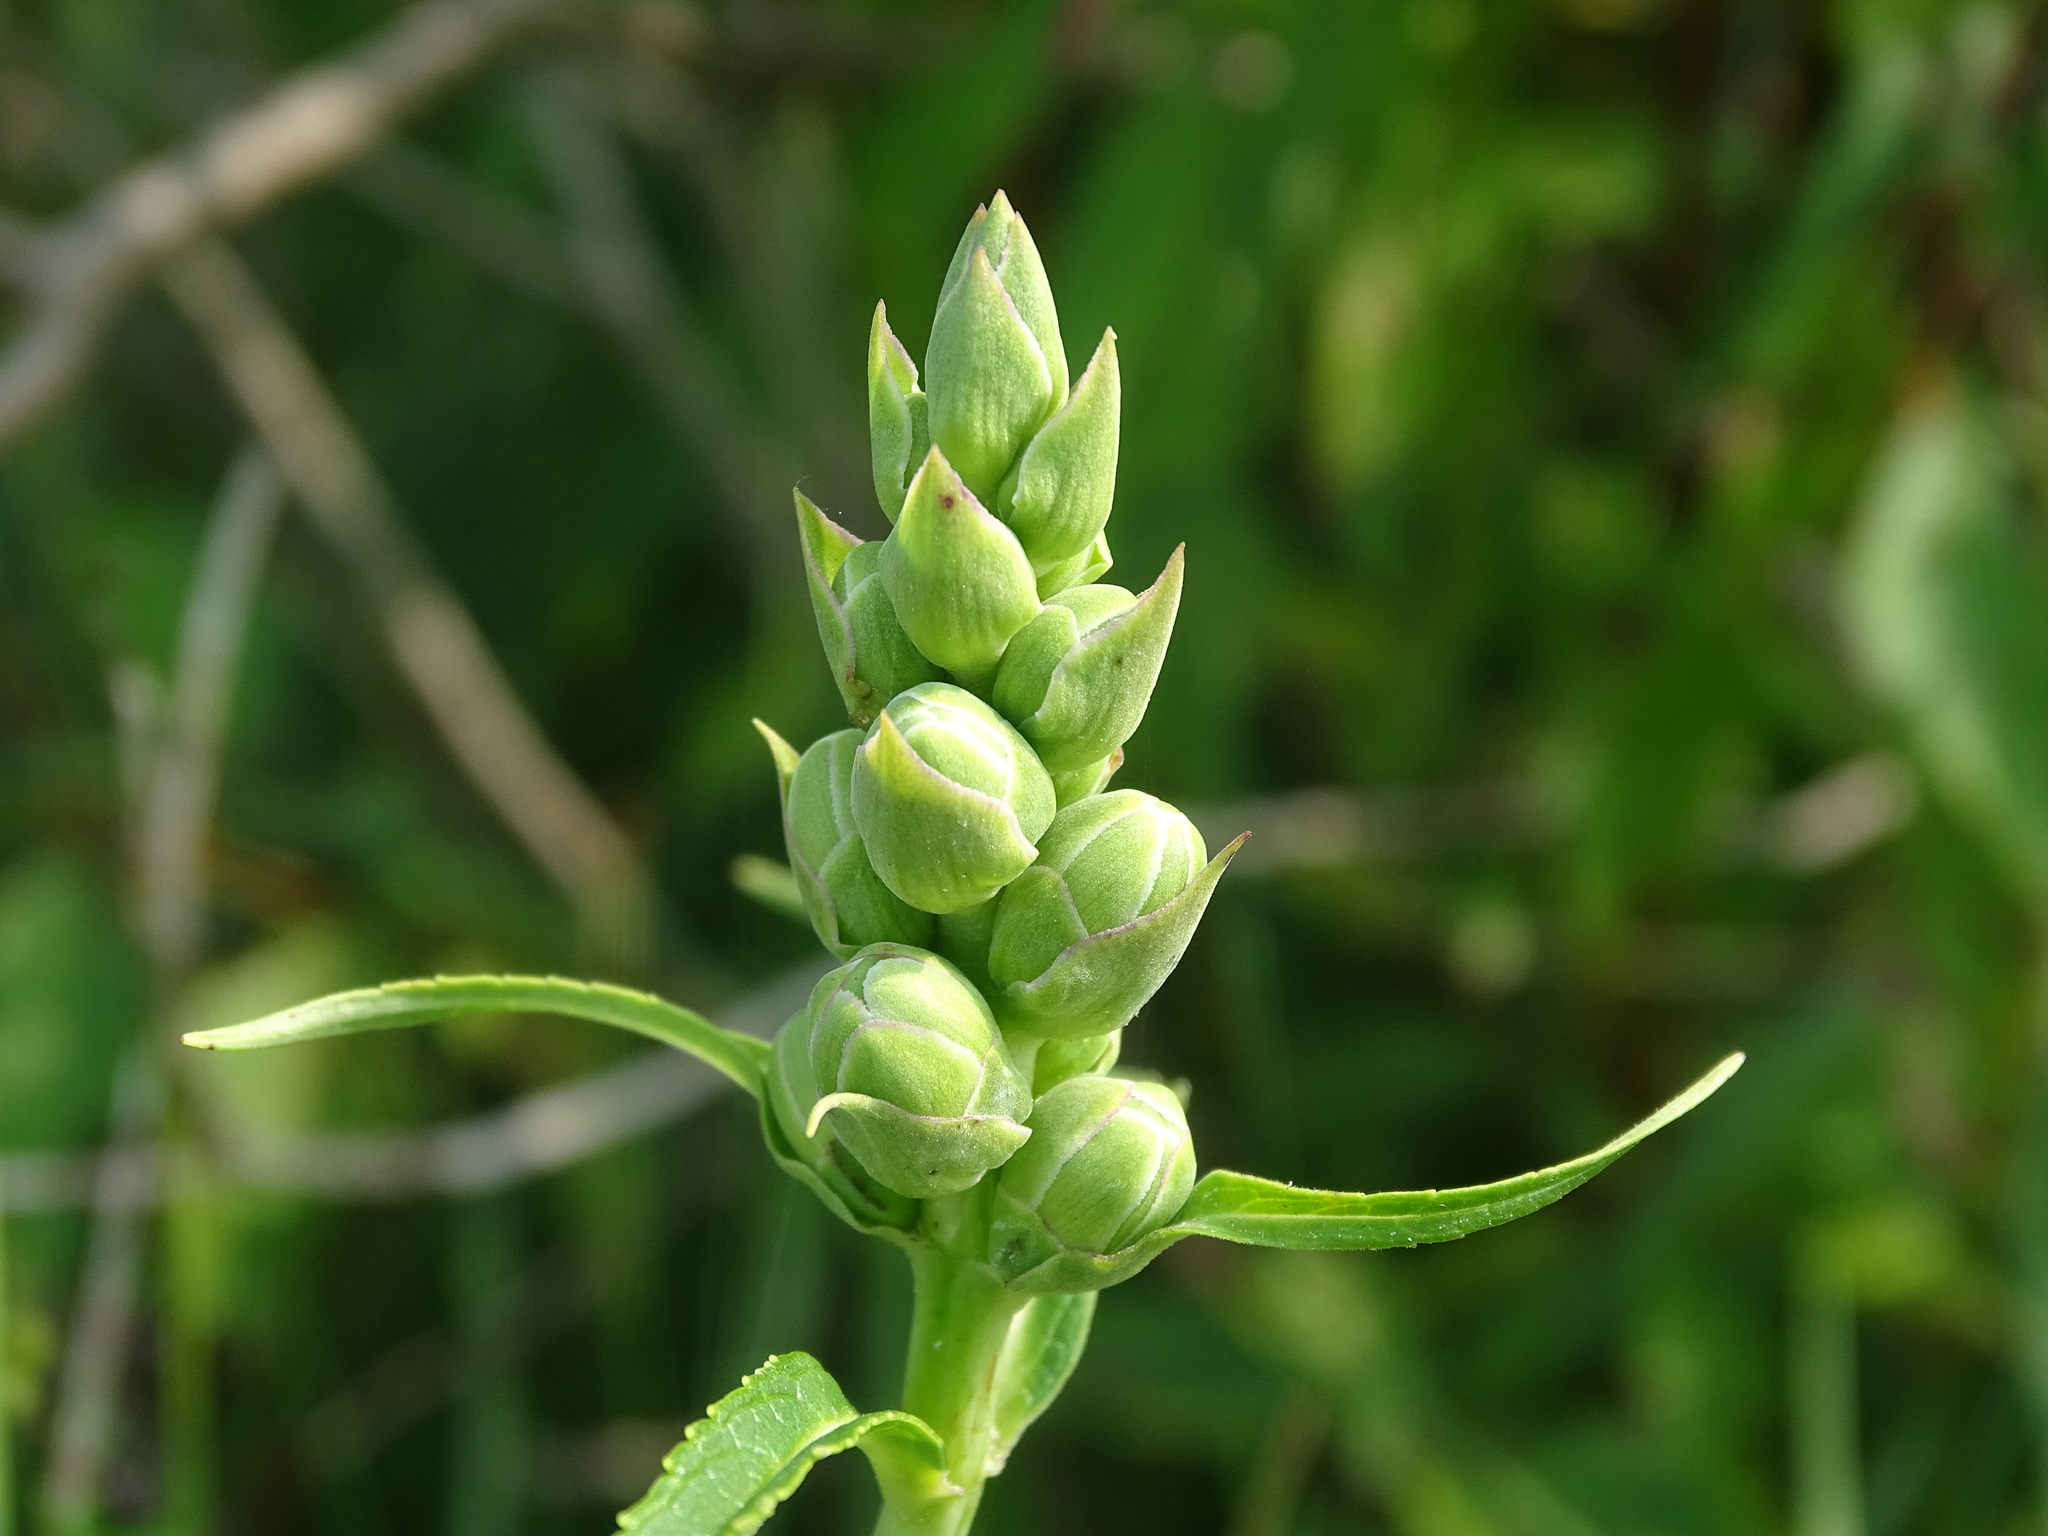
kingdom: Plantae
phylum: Tracheophyta
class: Magnoliopsida
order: Lamiales
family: Plantaginaceae
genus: Chelone
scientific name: Chelone glabra
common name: Snakehead
